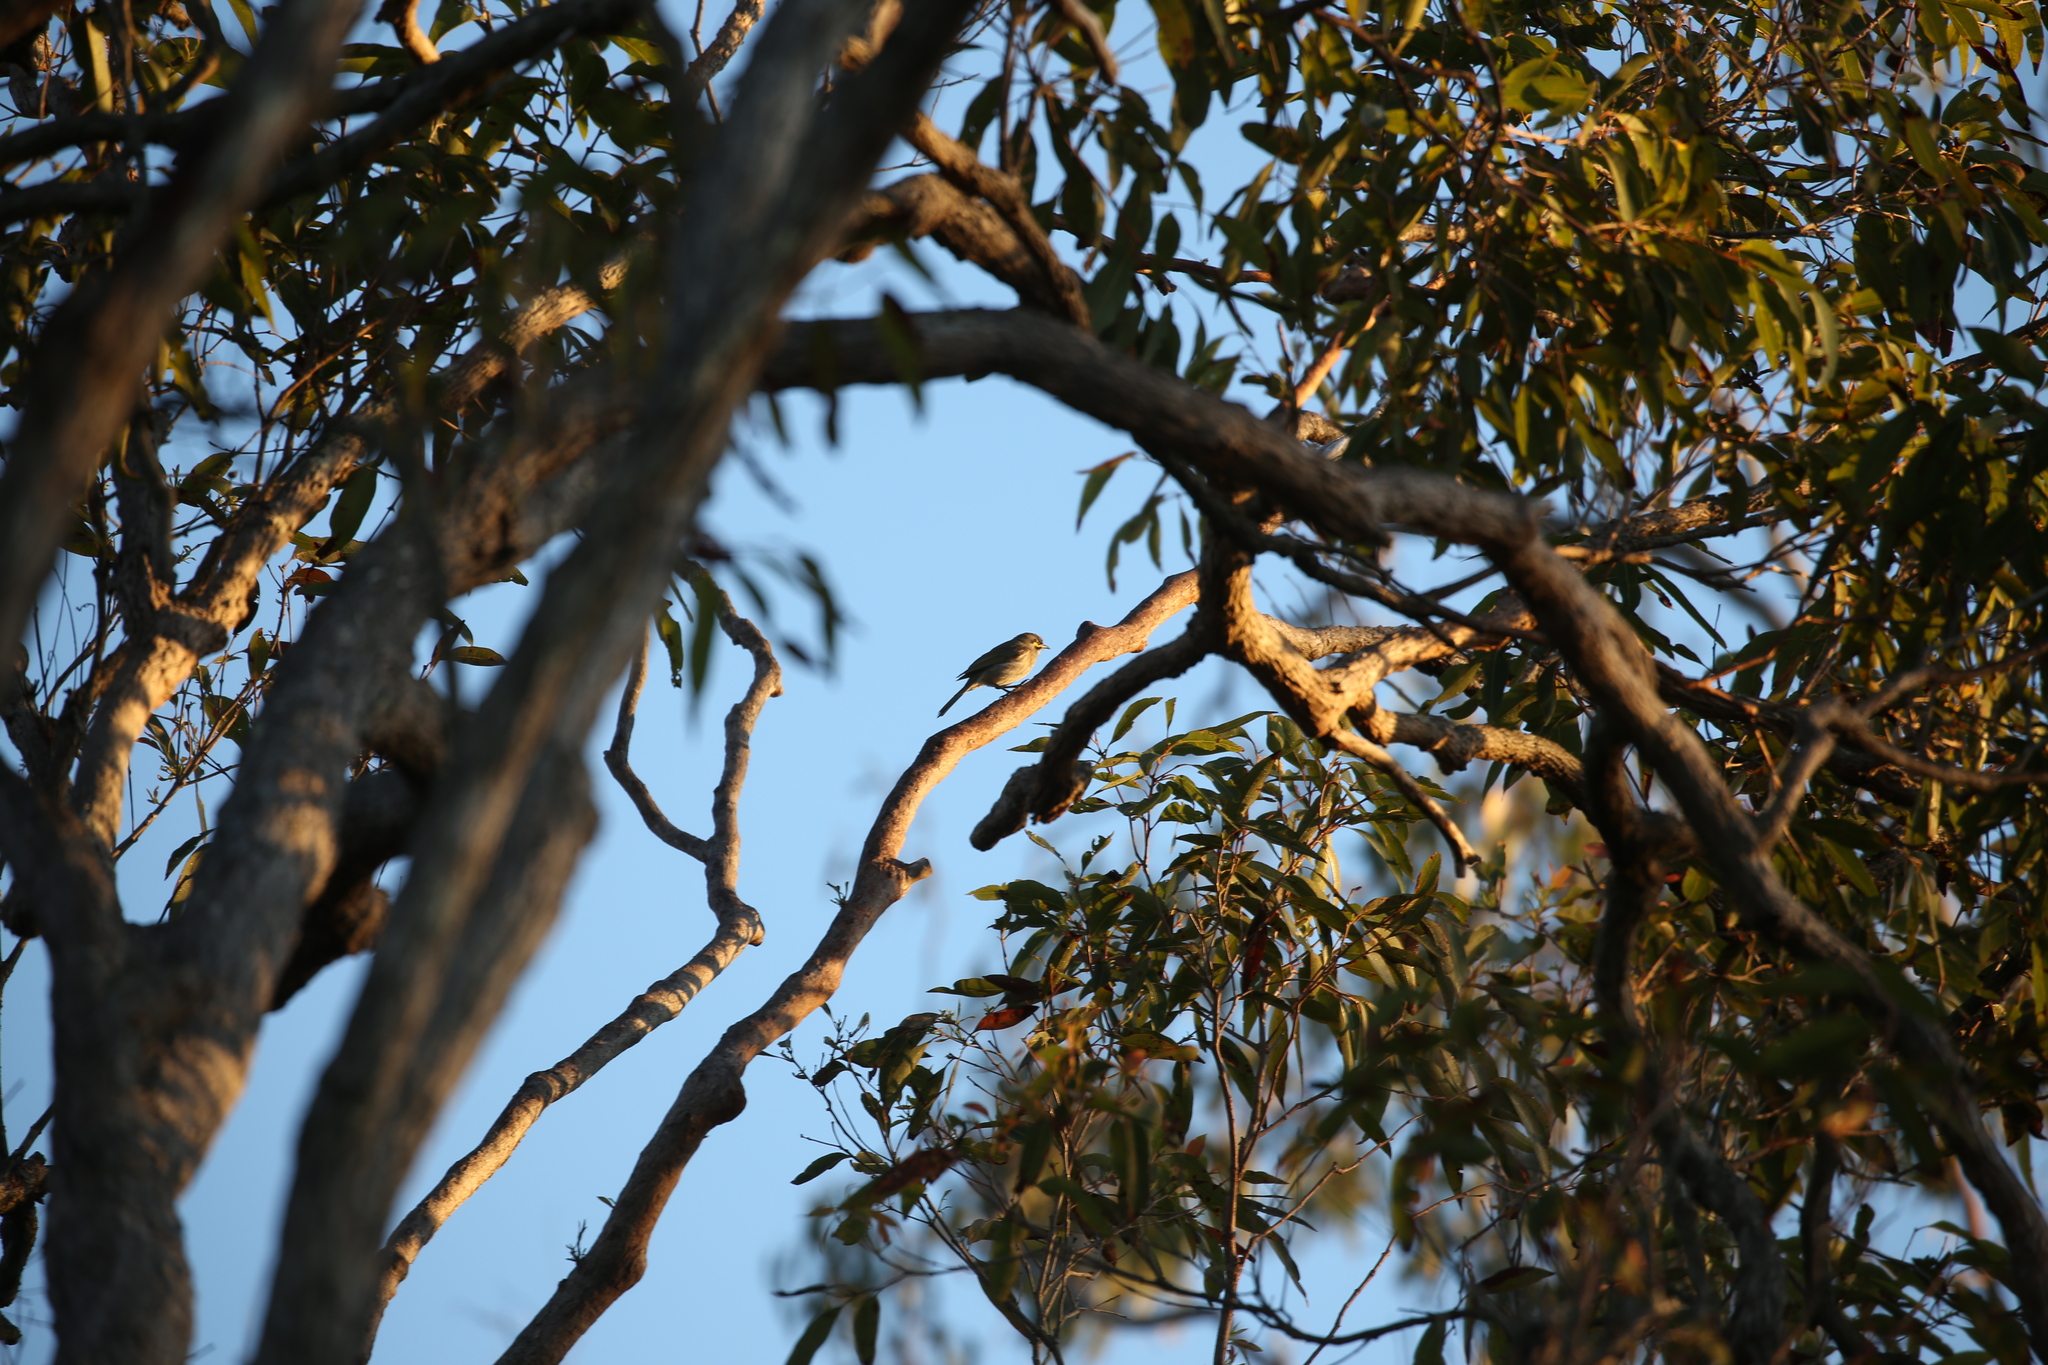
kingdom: Animalia
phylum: Chordata
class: Aves
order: Passeriformes
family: Meliphagidae
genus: Caligavis
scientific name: Caligavis chrysops
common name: Yellow-faced honeyeater
